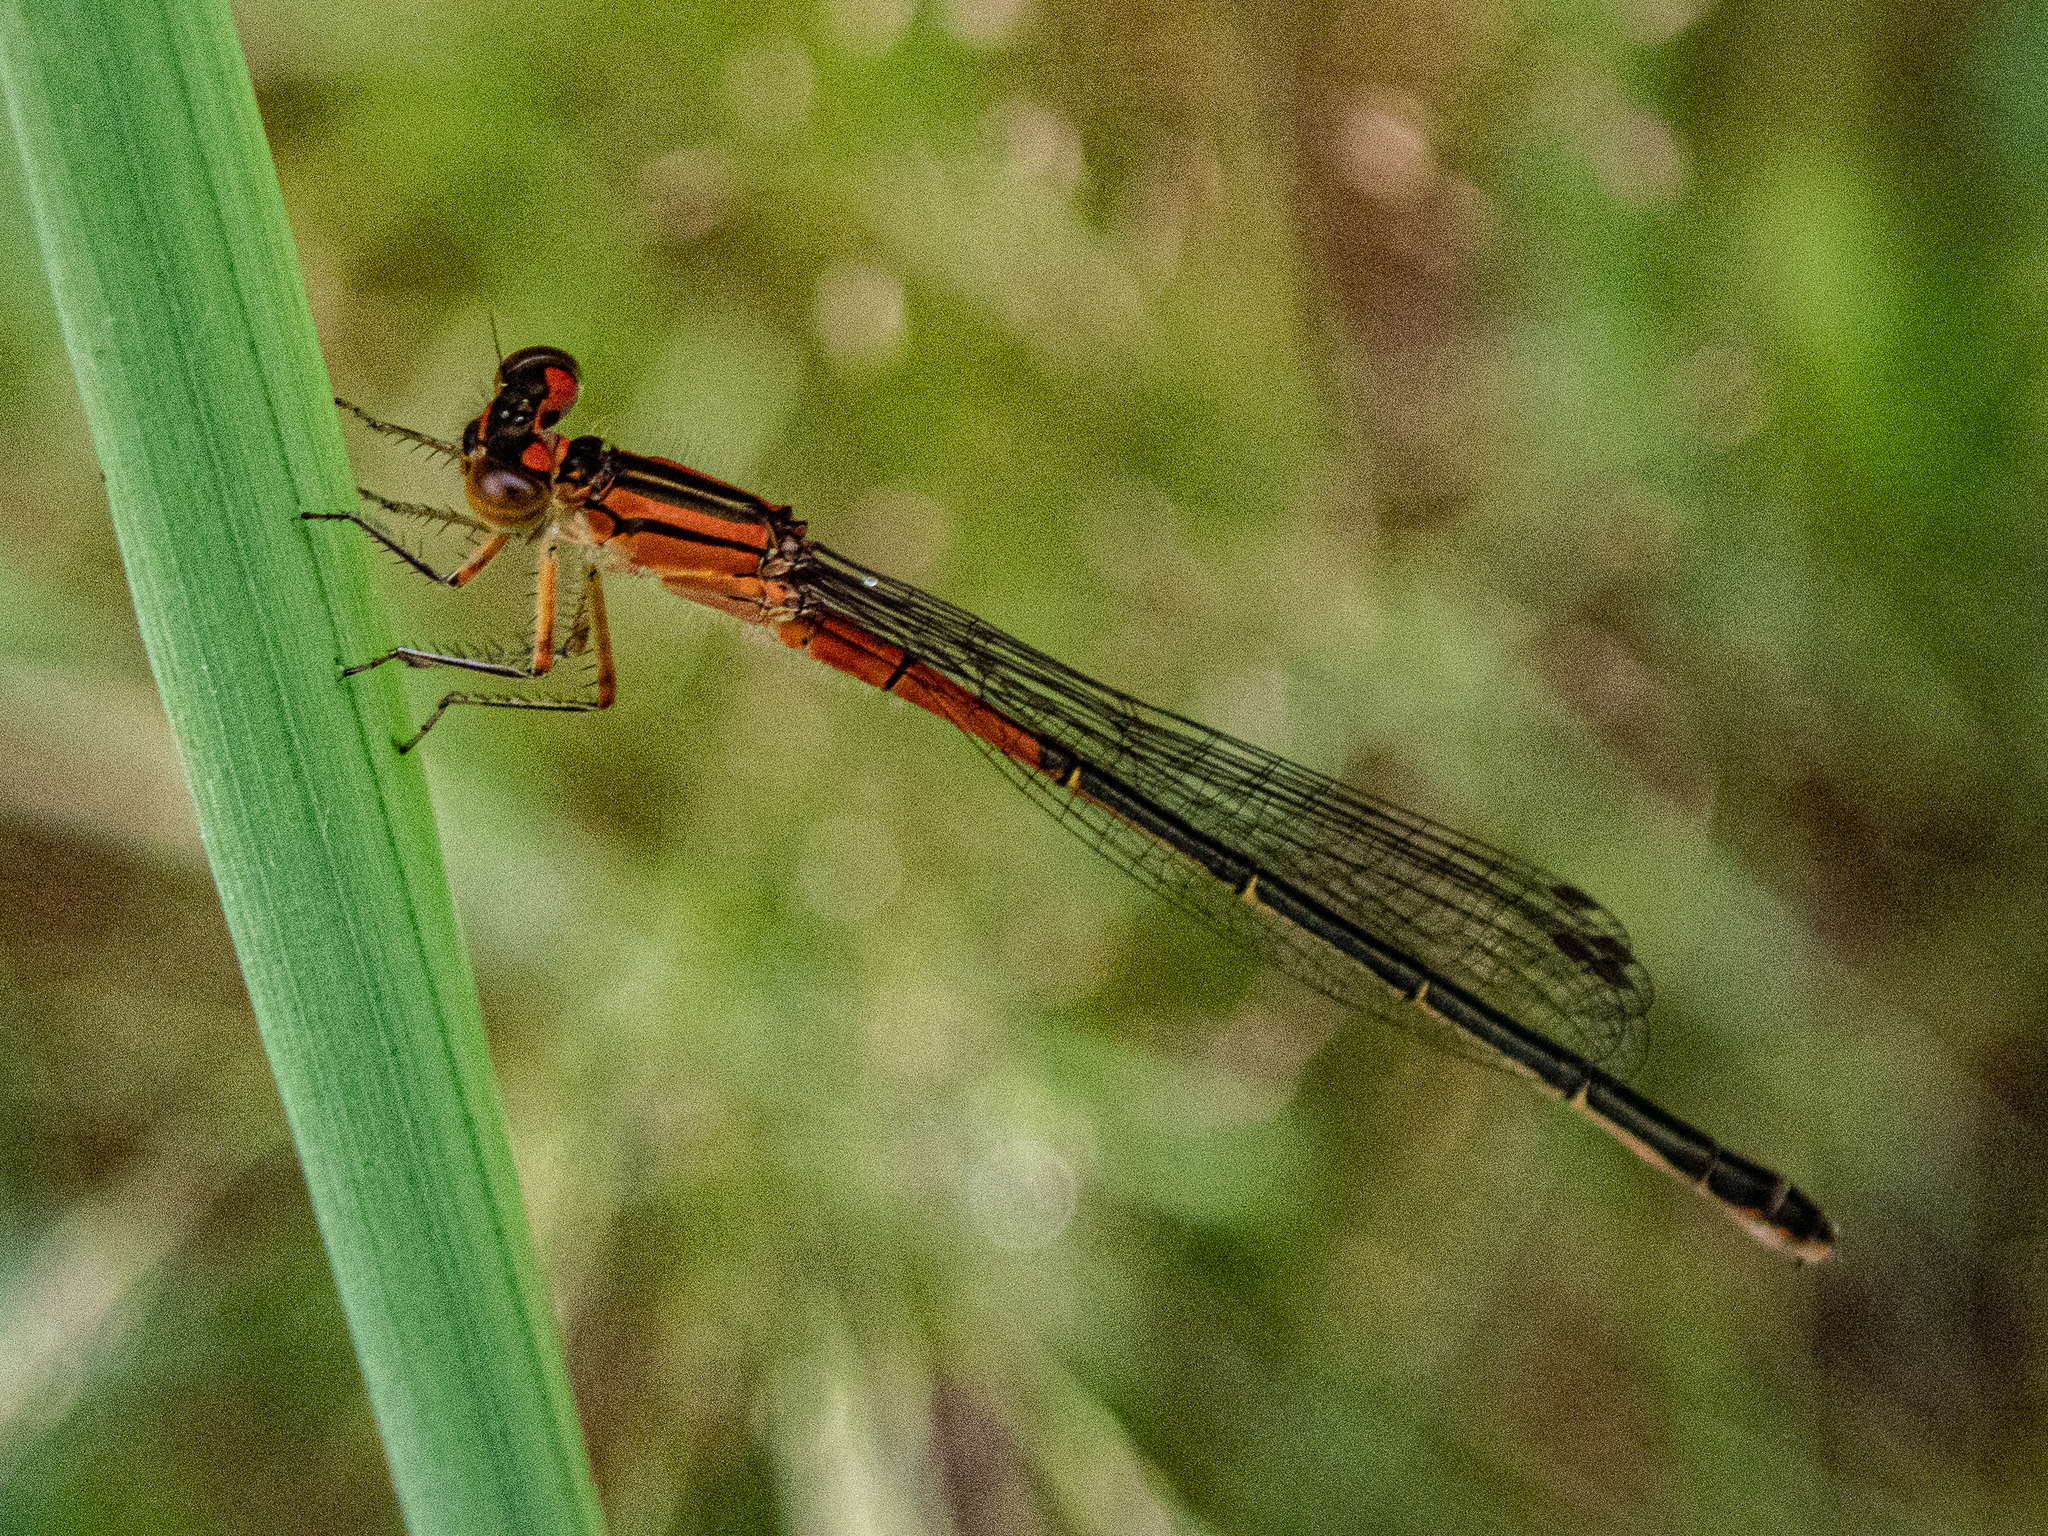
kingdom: Animalia
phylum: Arthropoda
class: Insecta
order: Odonata
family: Coenagrionidae
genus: Ischnura
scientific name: Ischnura verticalis
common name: Eastern forktail
